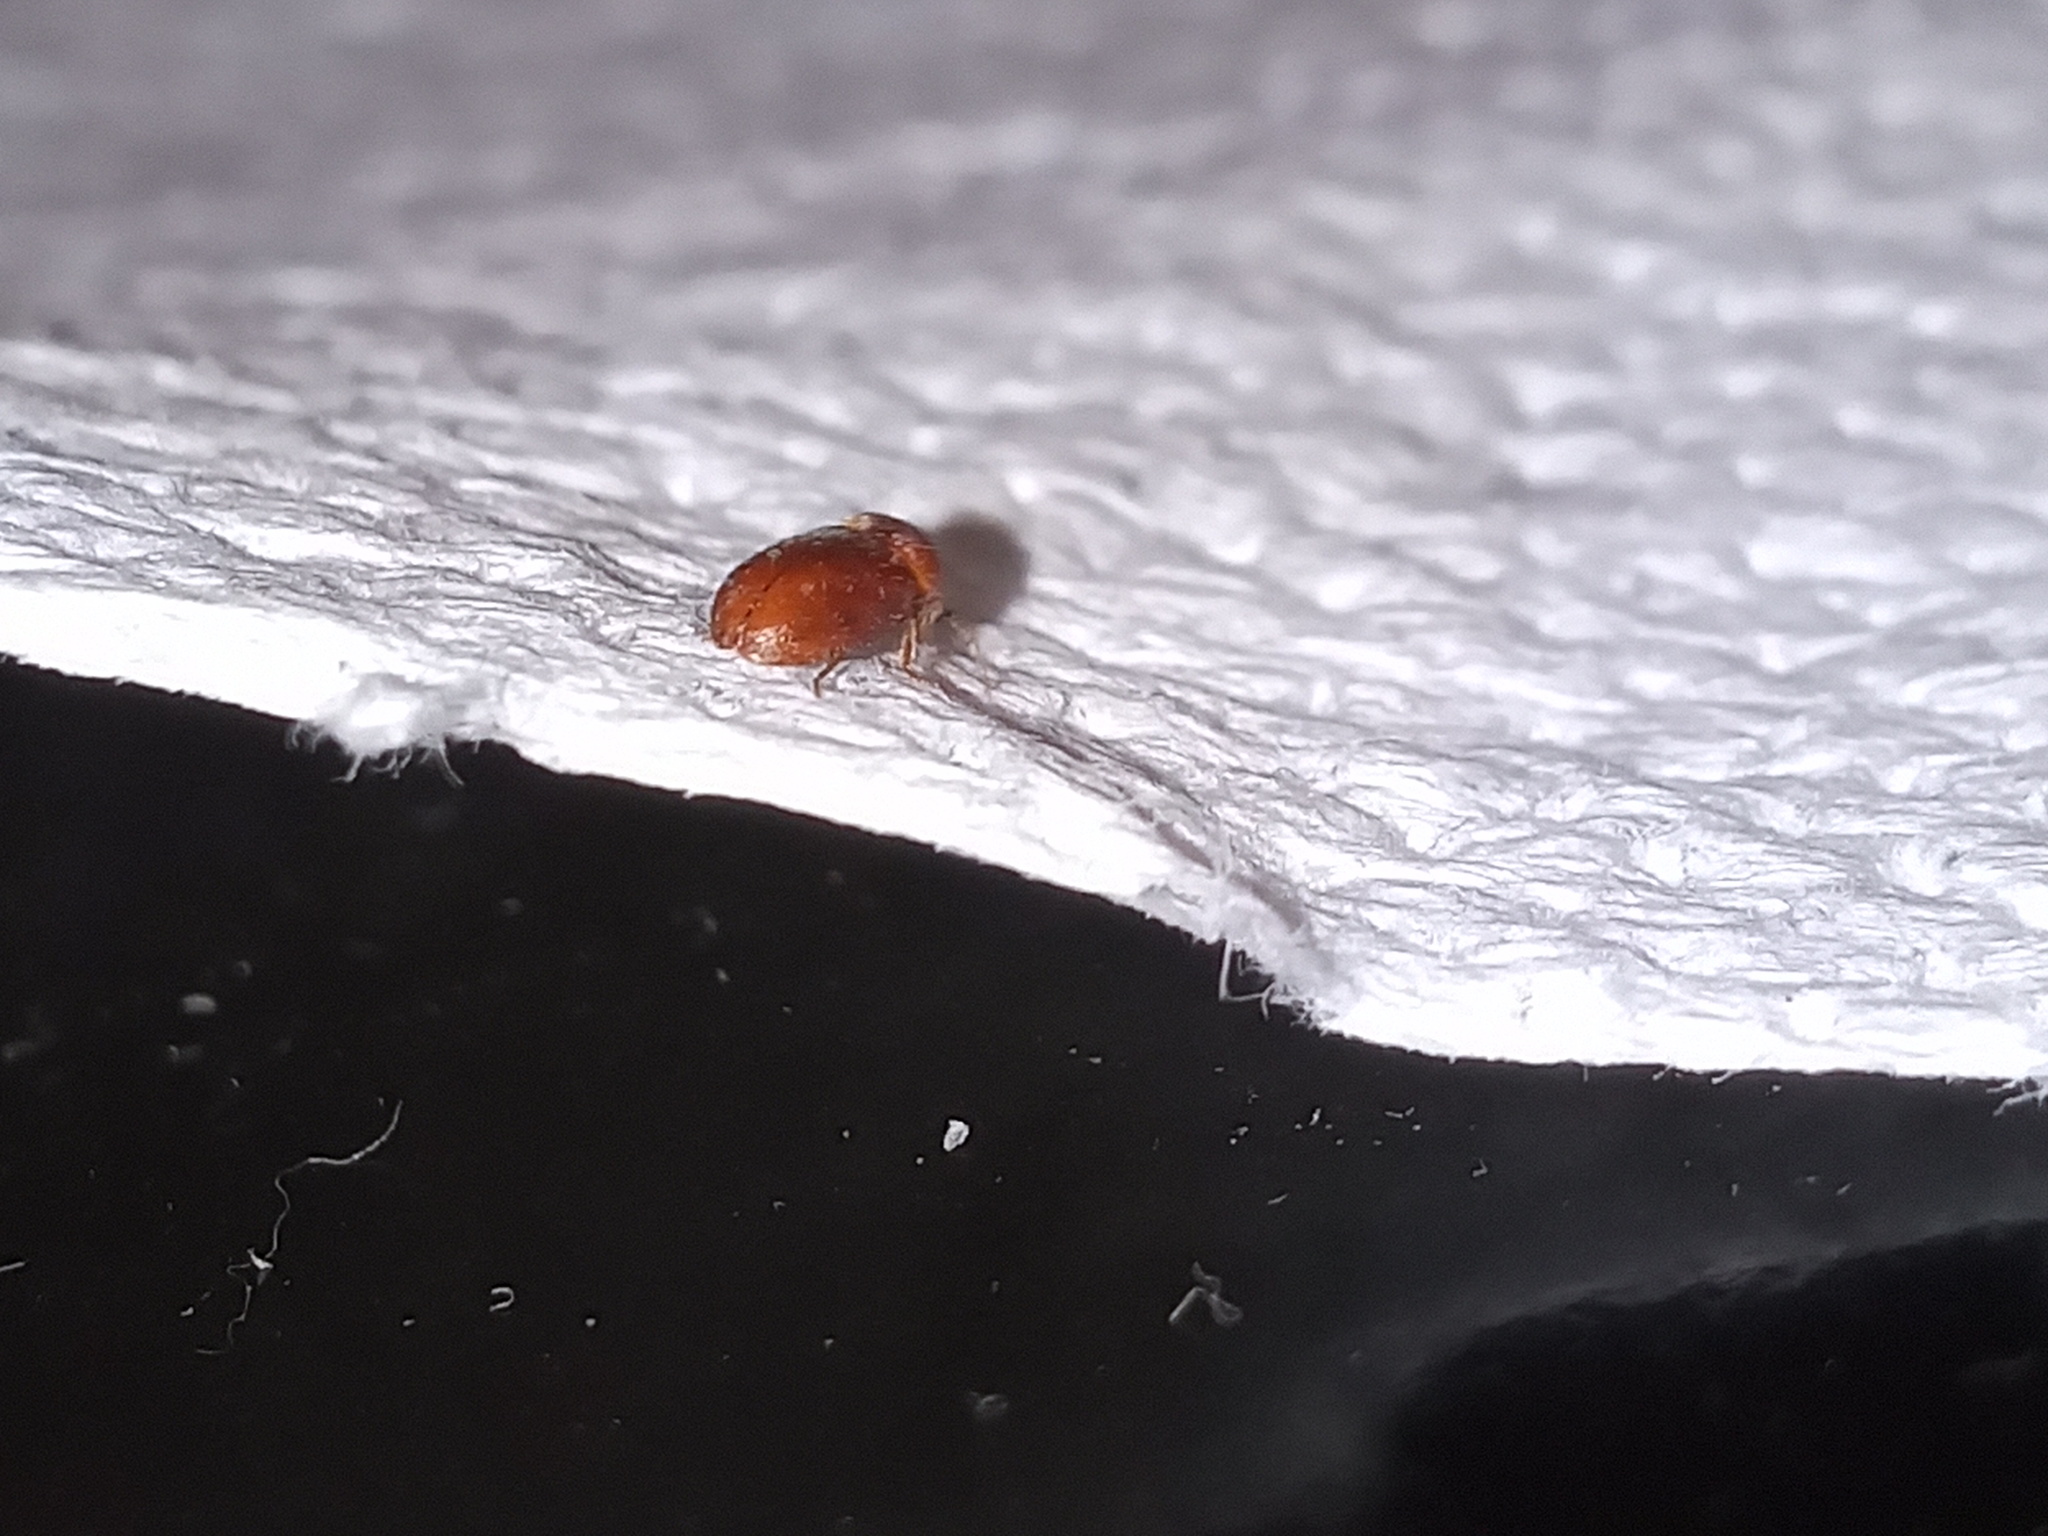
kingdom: Animalia
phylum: Arthropoda
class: Insecta
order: Coleoptera
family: Anobiidae
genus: Lasioderma
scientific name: Lasioderma serricorne
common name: Cigarette beetle
